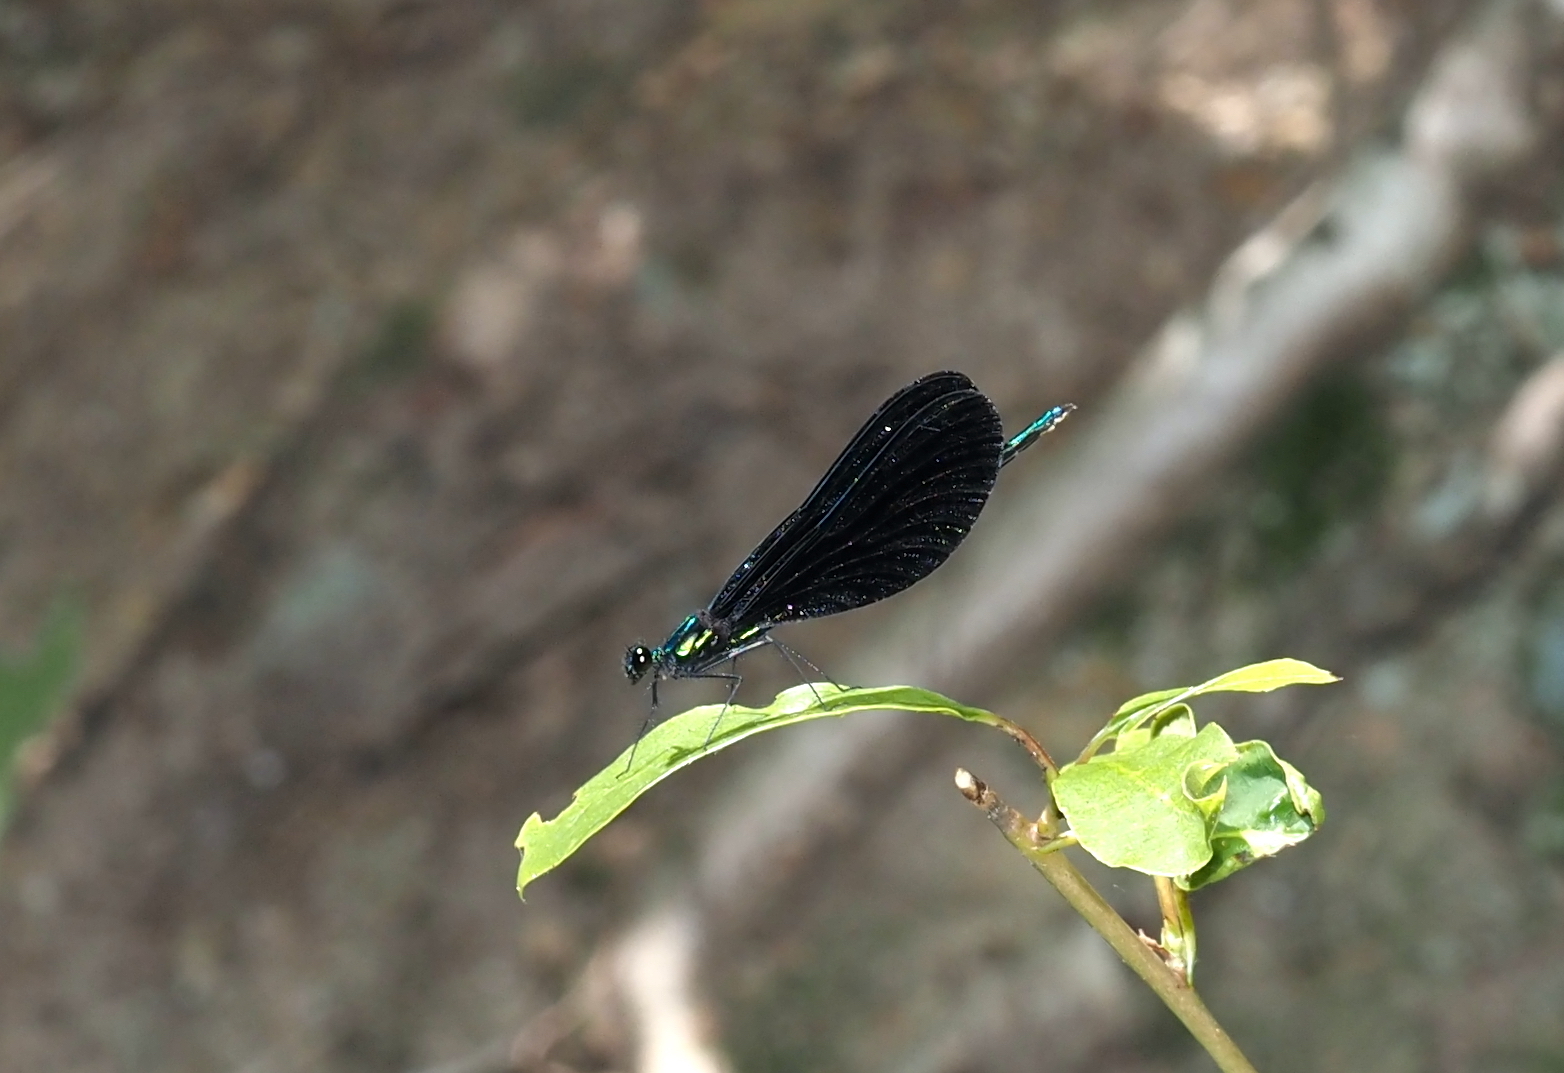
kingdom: Animalia
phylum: Arthropoda
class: Insecta
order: Odonata
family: Calopterygidae
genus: Calopteryx
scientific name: Calopteryx maculata
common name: Ebony jewelwing
